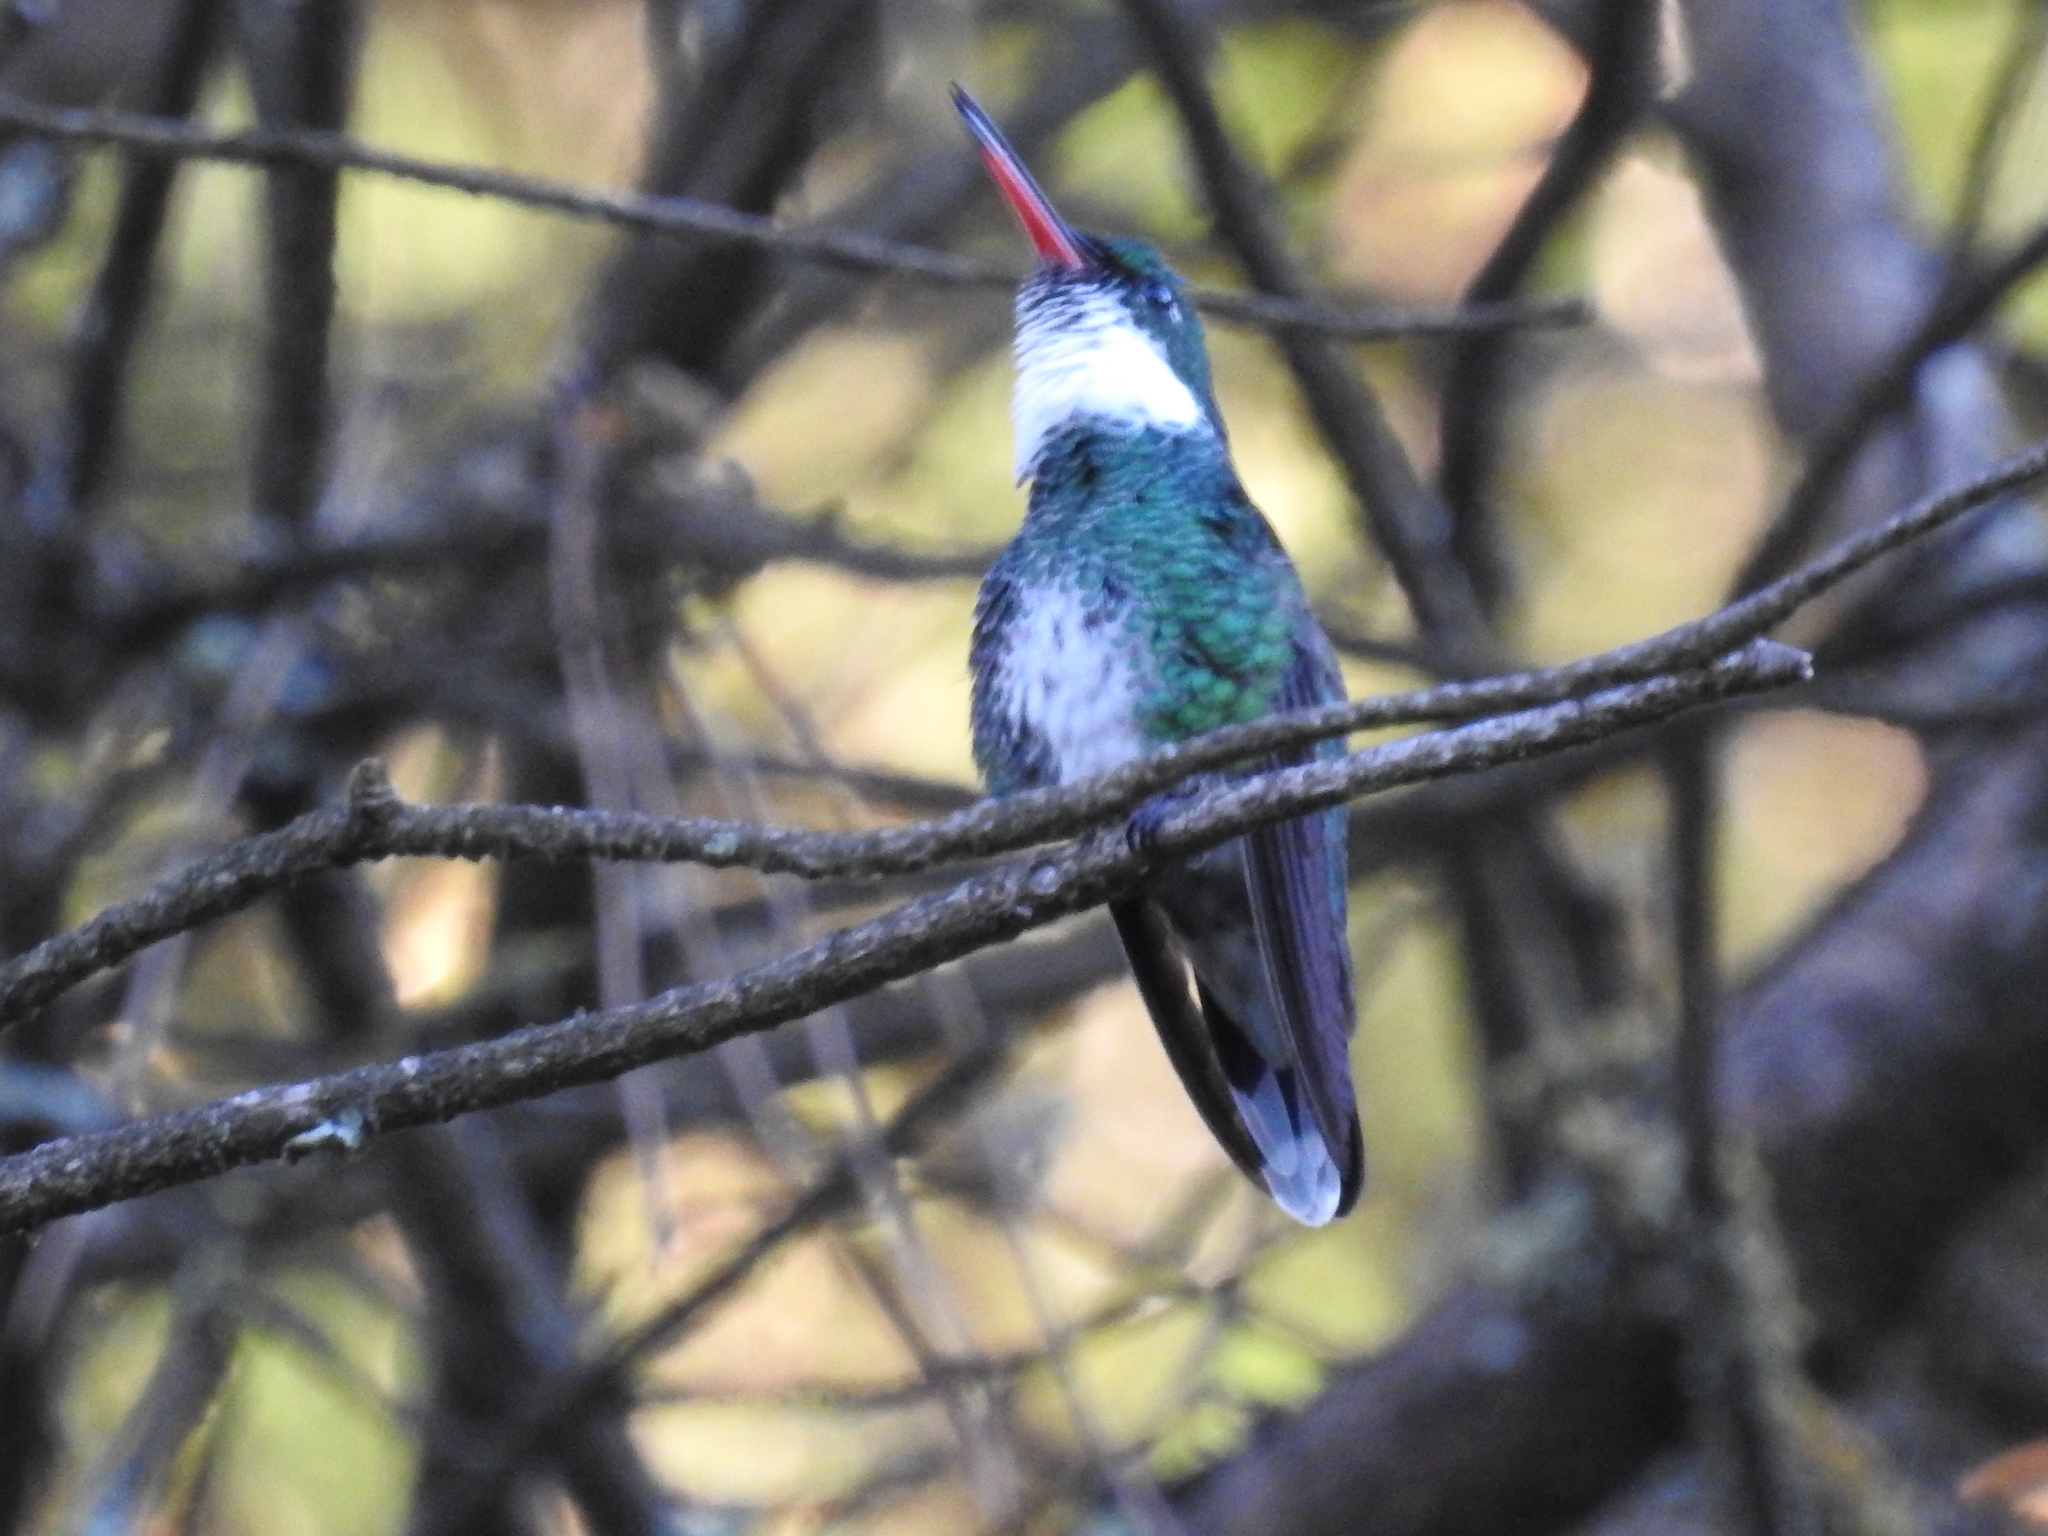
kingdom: Animalia
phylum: Chordata
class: Aves
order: Apodiformes
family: Trochilidae
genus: Leucochloris
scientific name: Leucochloris albicollis
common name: White-throated hummingbird
